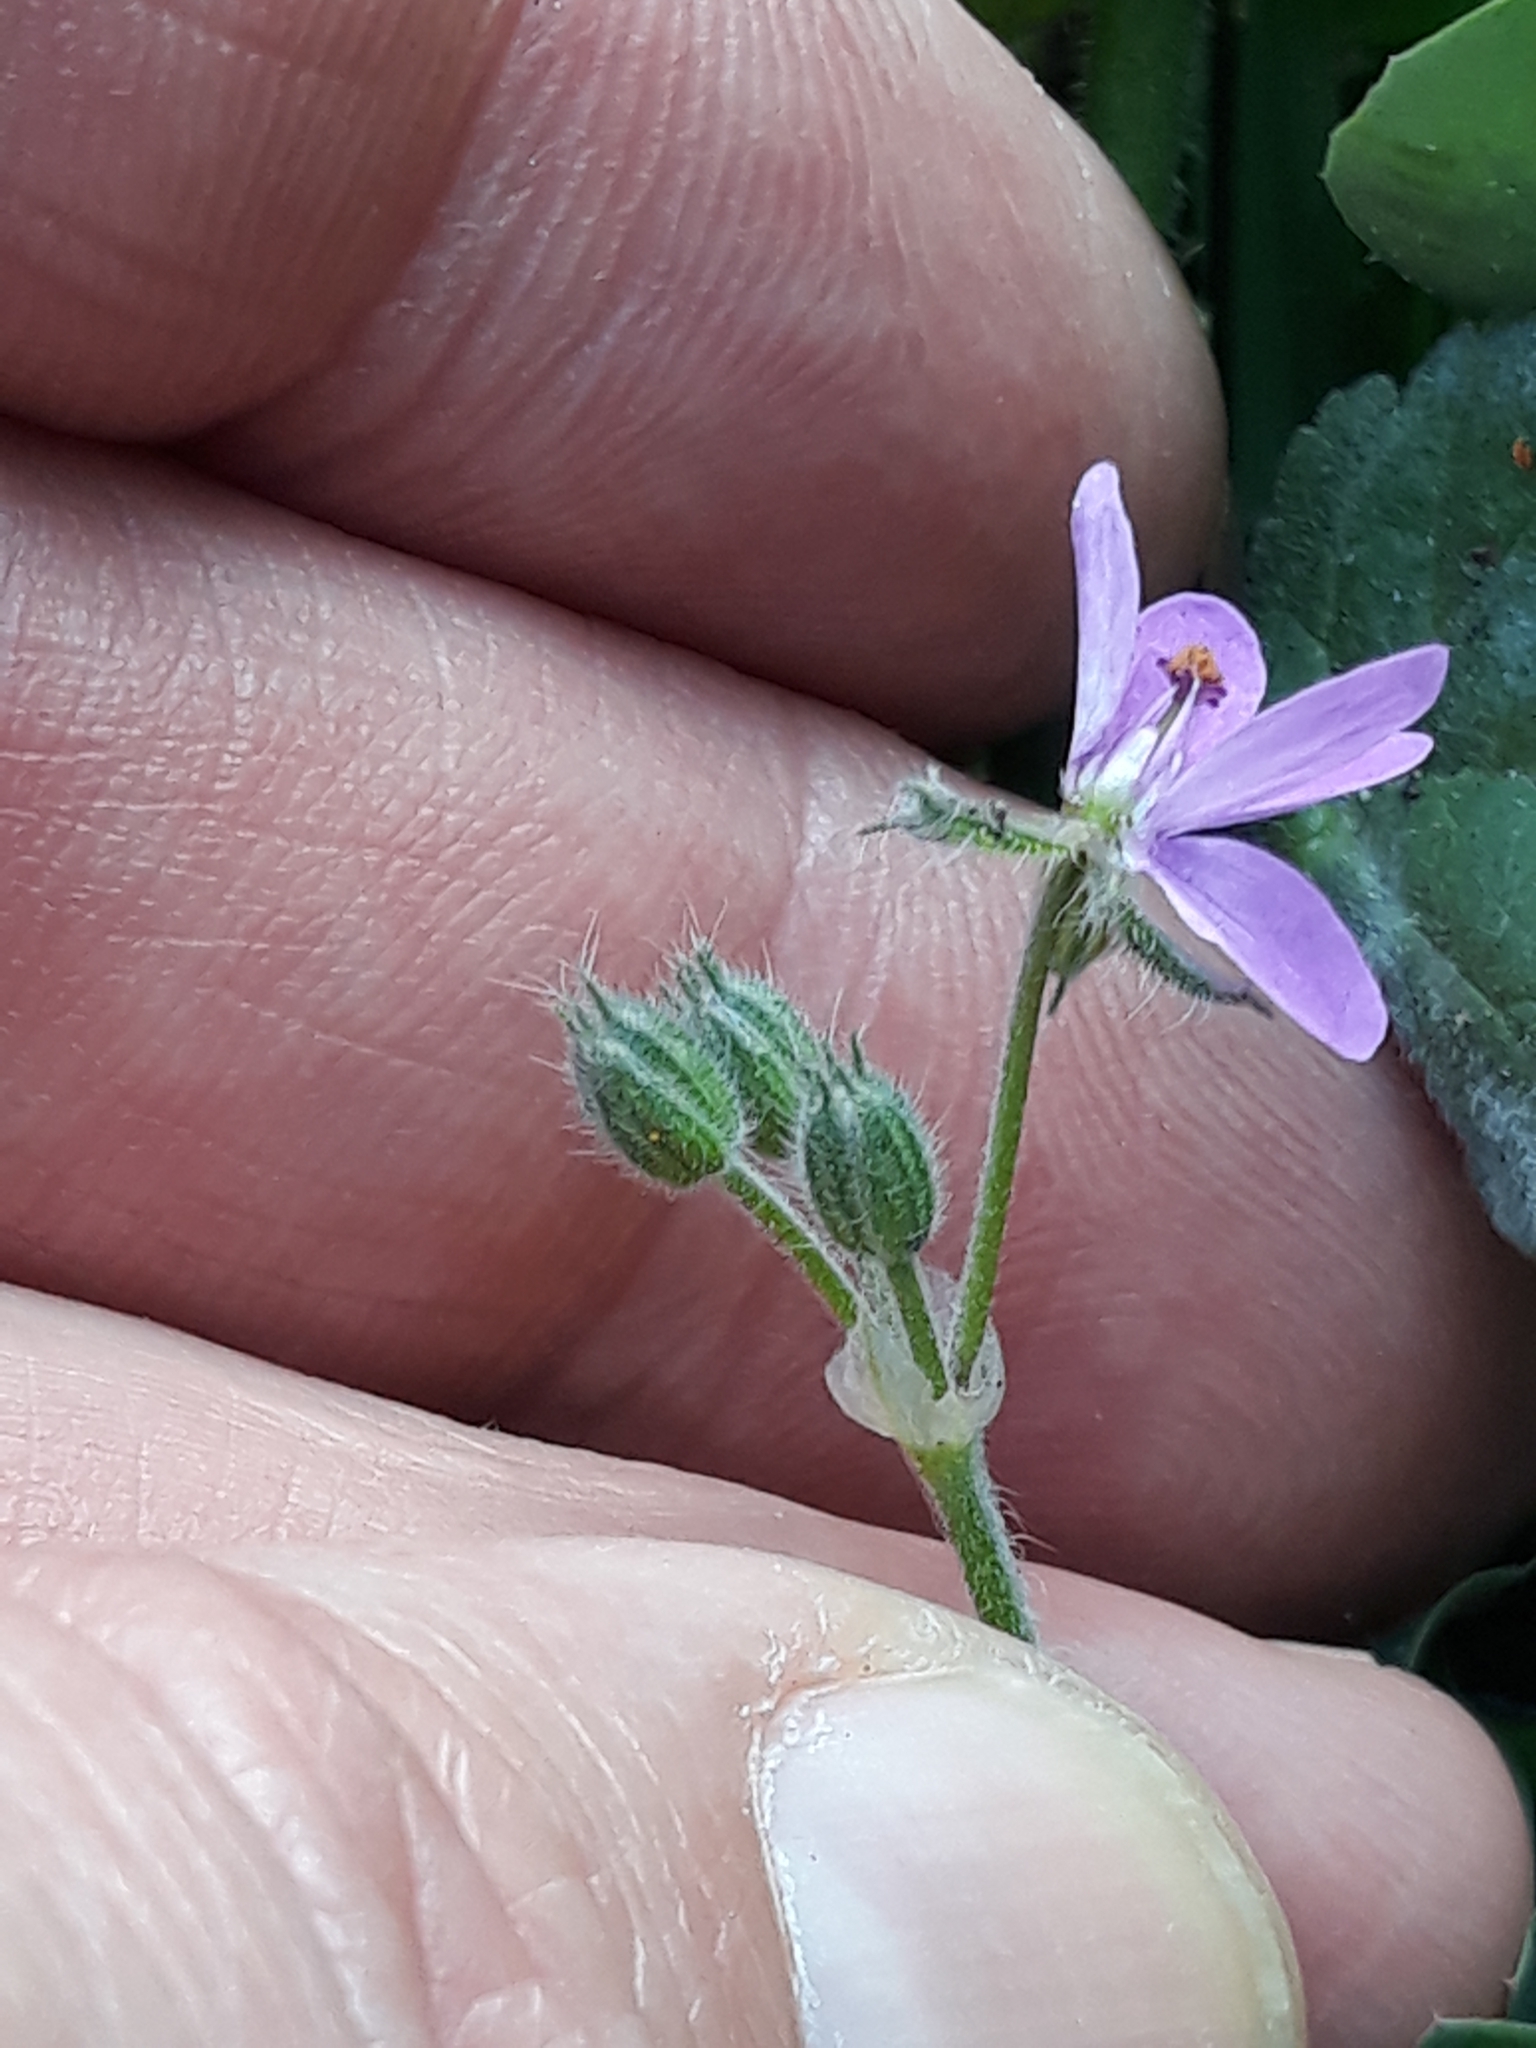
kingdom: Plantae
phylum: Tracheophyta
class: Magnoliopsida
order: Geraniales
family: Geraniaceae
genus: Erodium
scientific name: Erodium malacoides
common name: Soft stork's-bill
